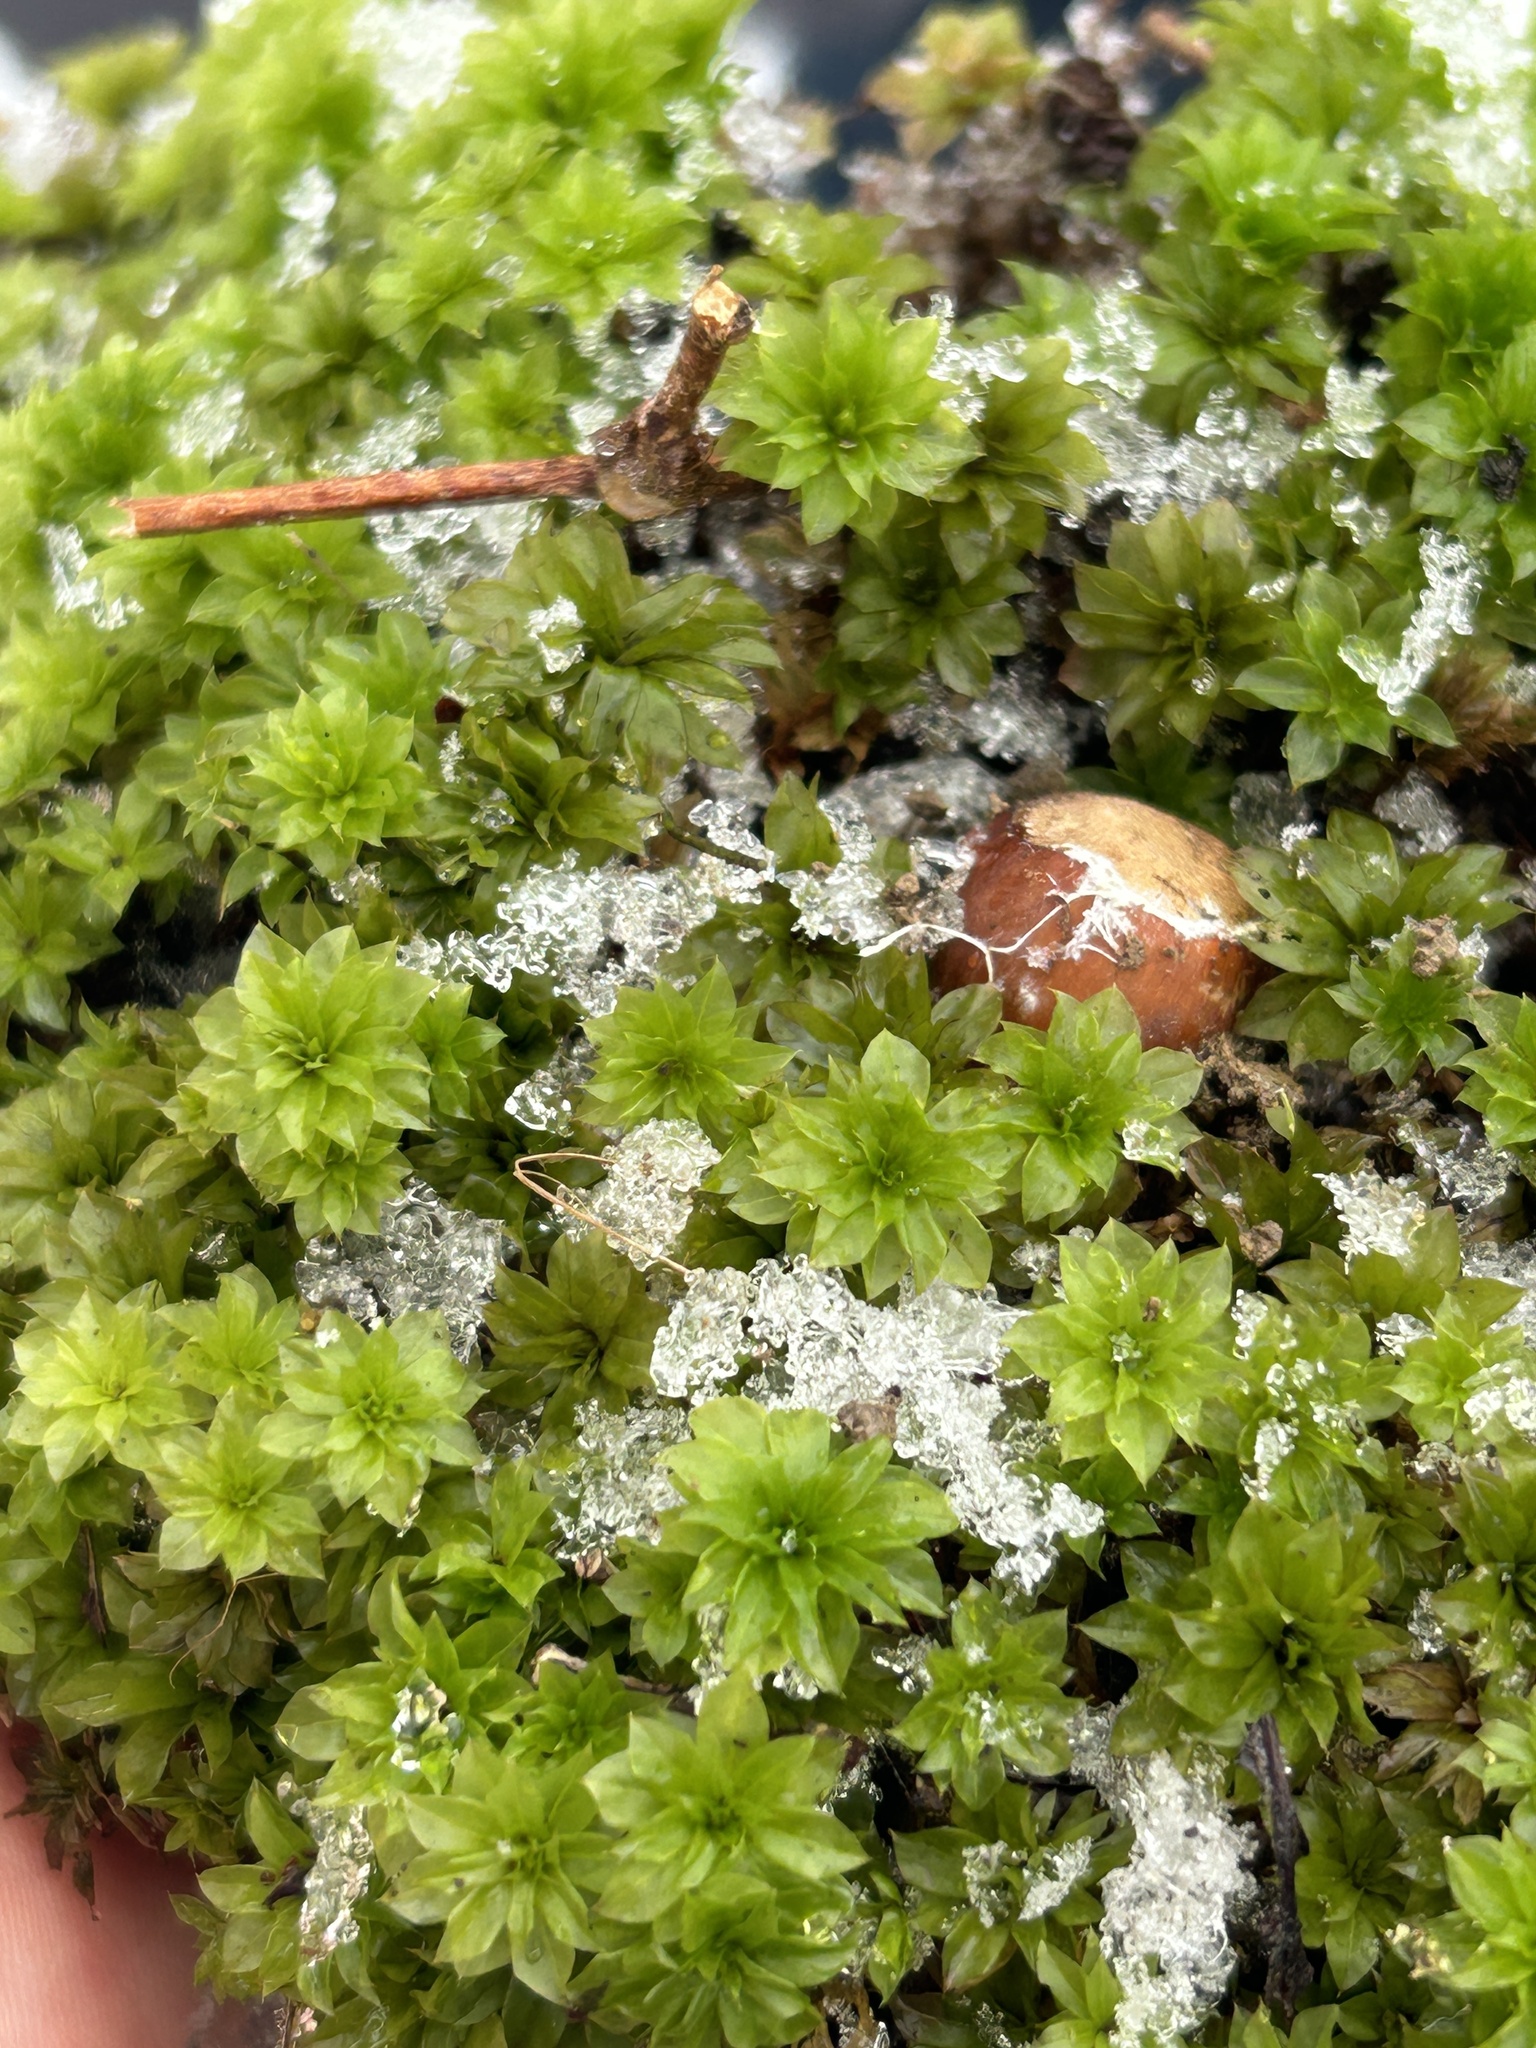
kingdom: Plantae
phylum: Bryophyta
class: Bryopsida
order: Bryales
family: Bryaceae
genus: Rhodobryum
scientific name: Rhodobryum roseum
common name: Rose-moss
